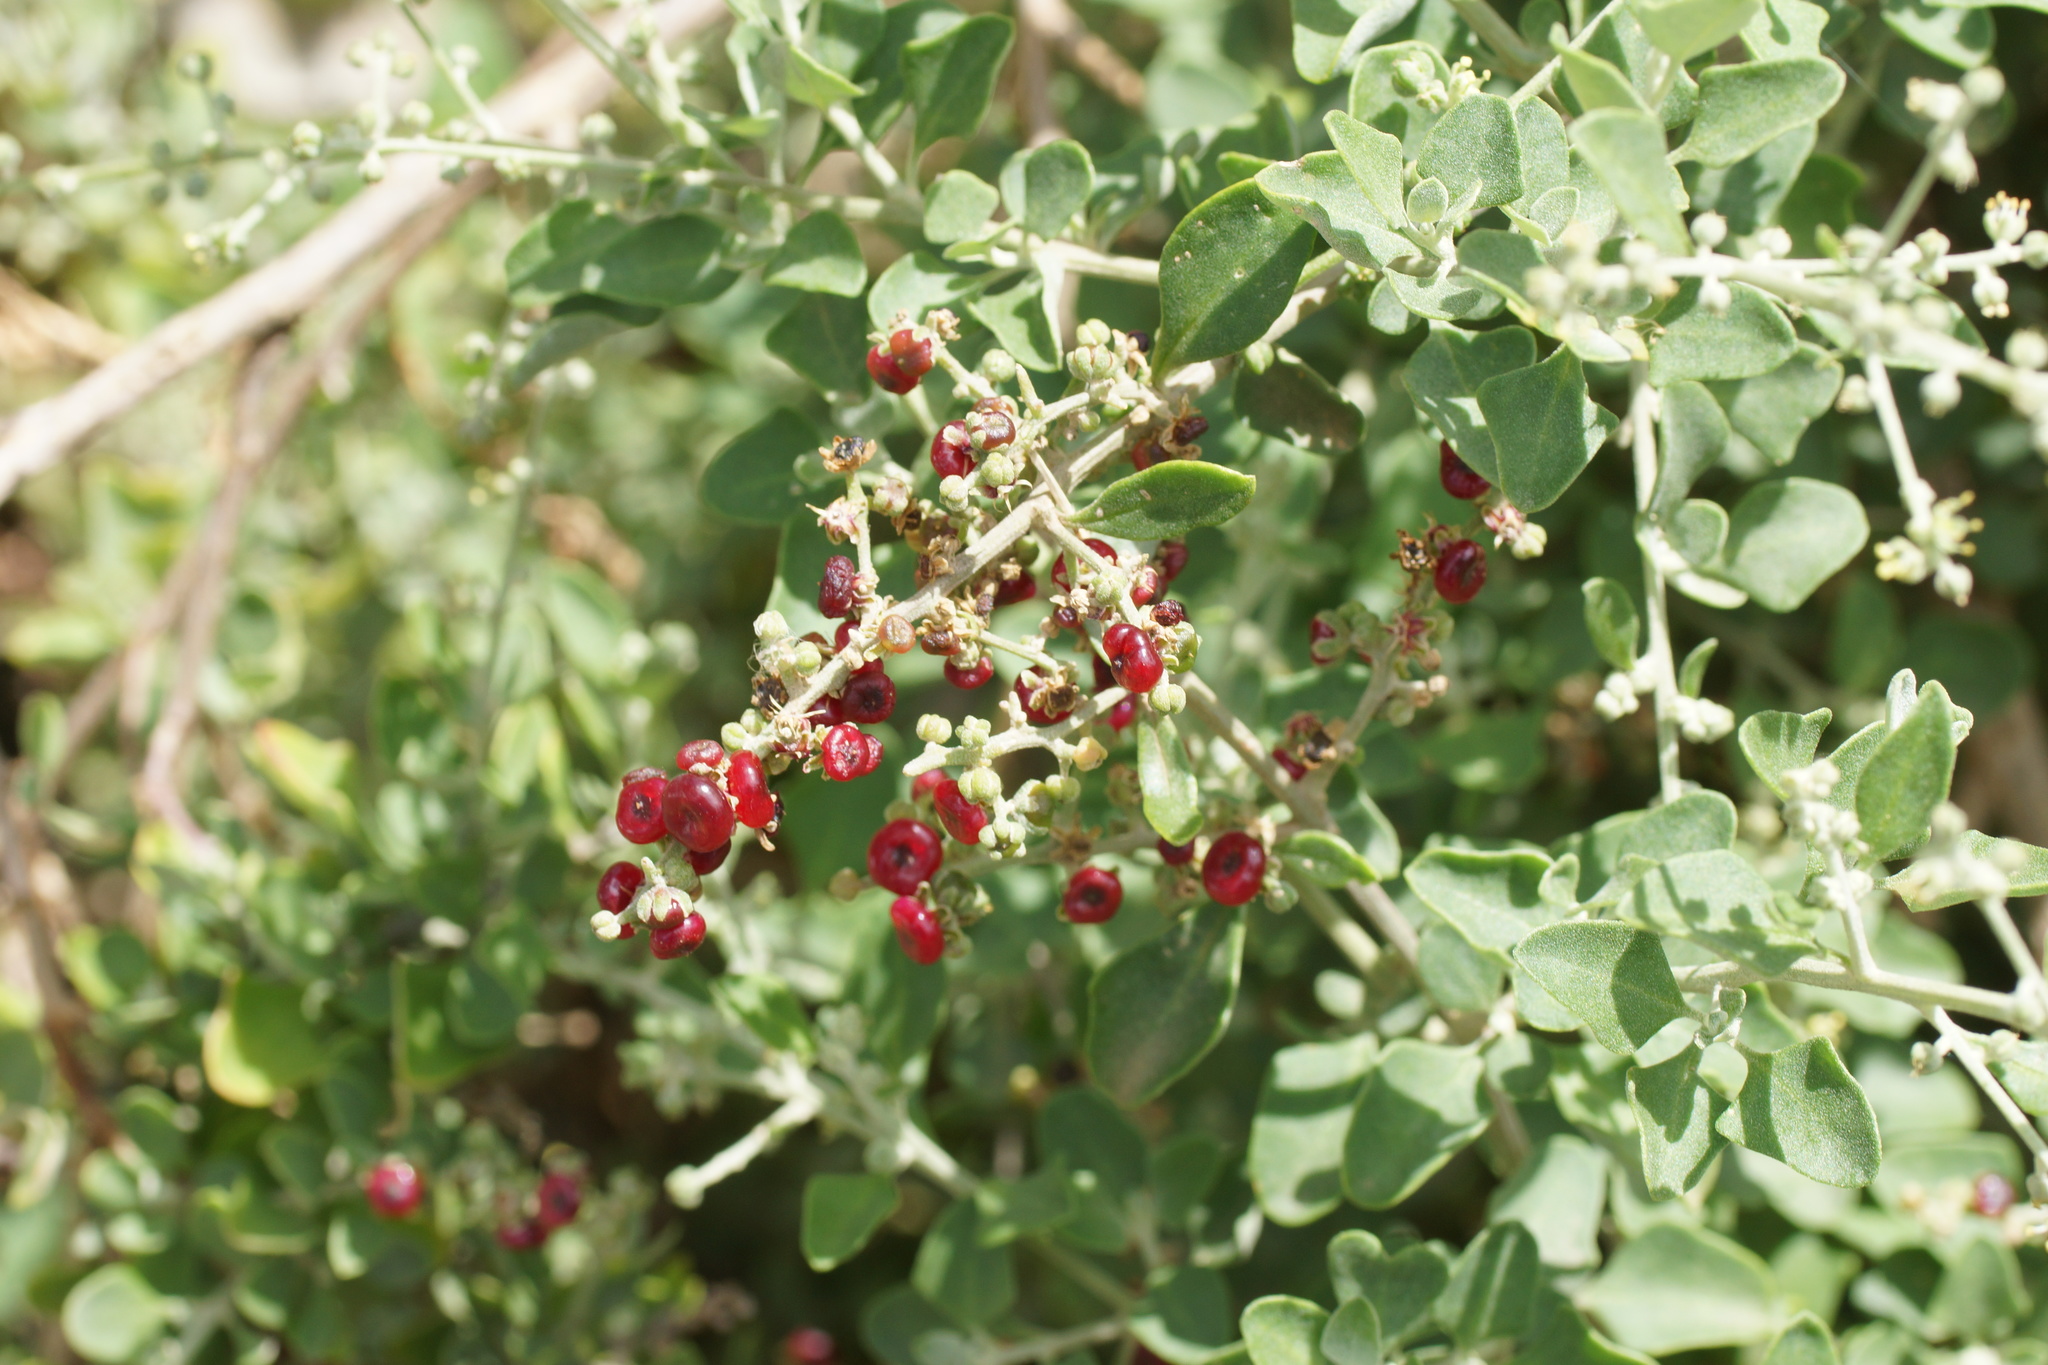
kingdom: Plantae
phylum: Tracheophyta
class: Magnoliopsida
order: Caryophyllales
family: Amaranthaceae
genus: Chenopodium
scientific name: Chenopodium parabolicum
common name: Old-man-saltbush
